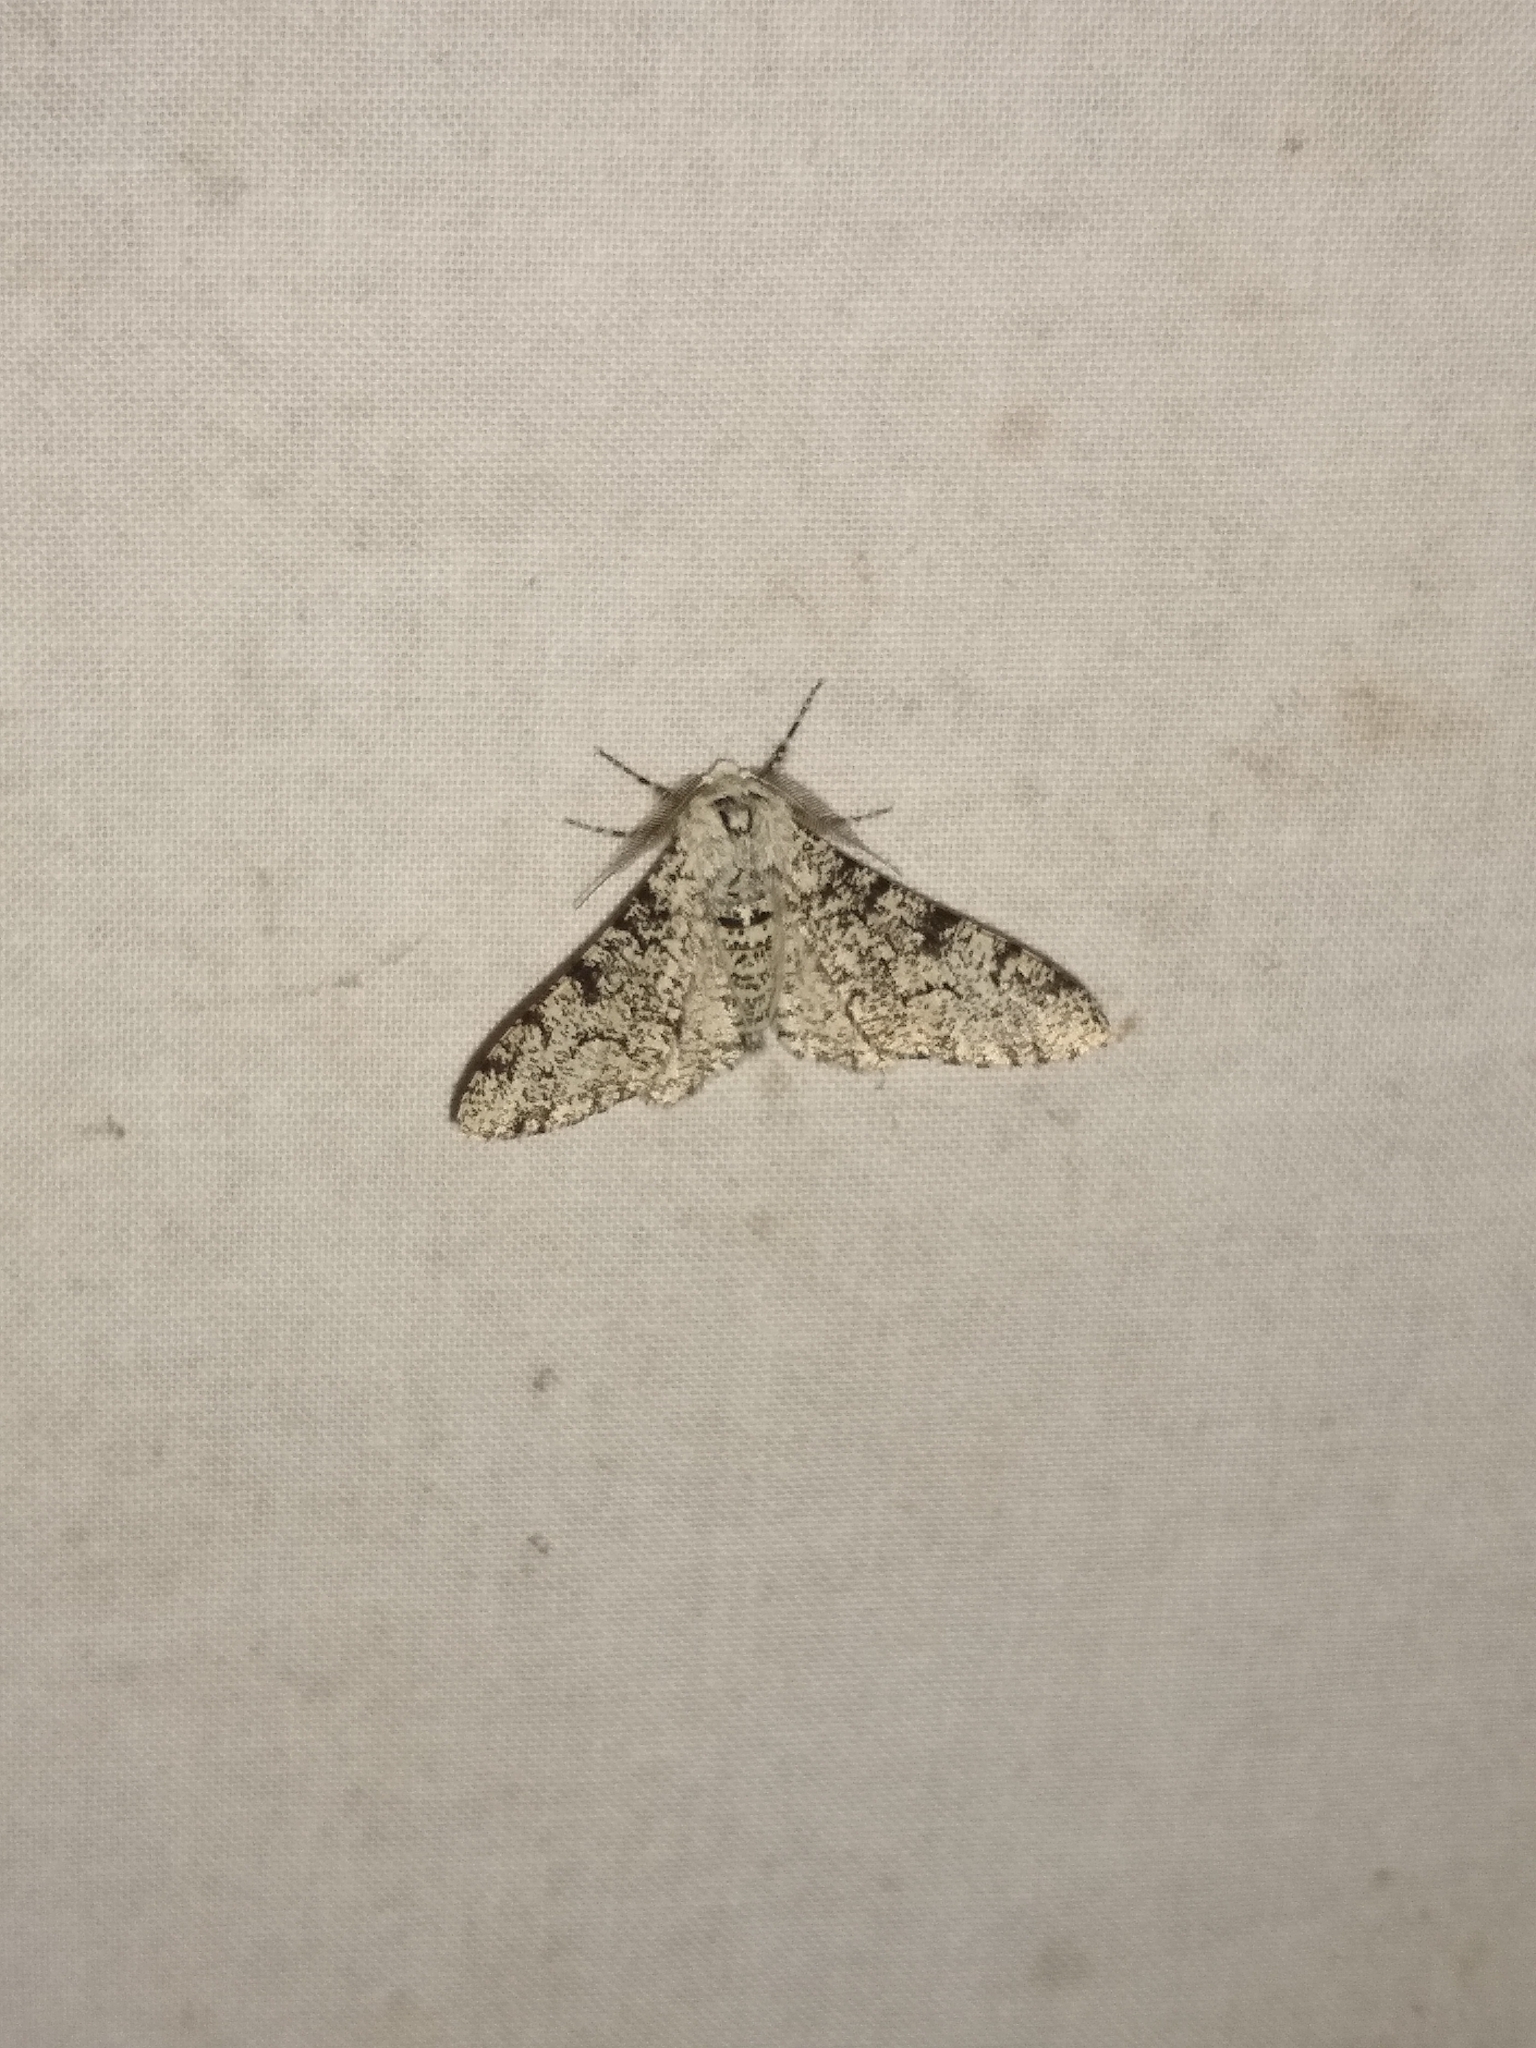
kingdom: Animalia
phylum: Arthropoda
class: Insecta
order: Lepidoptera
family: Geometridae
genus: Biston
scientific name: Biston betularia
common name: Peppered moth
